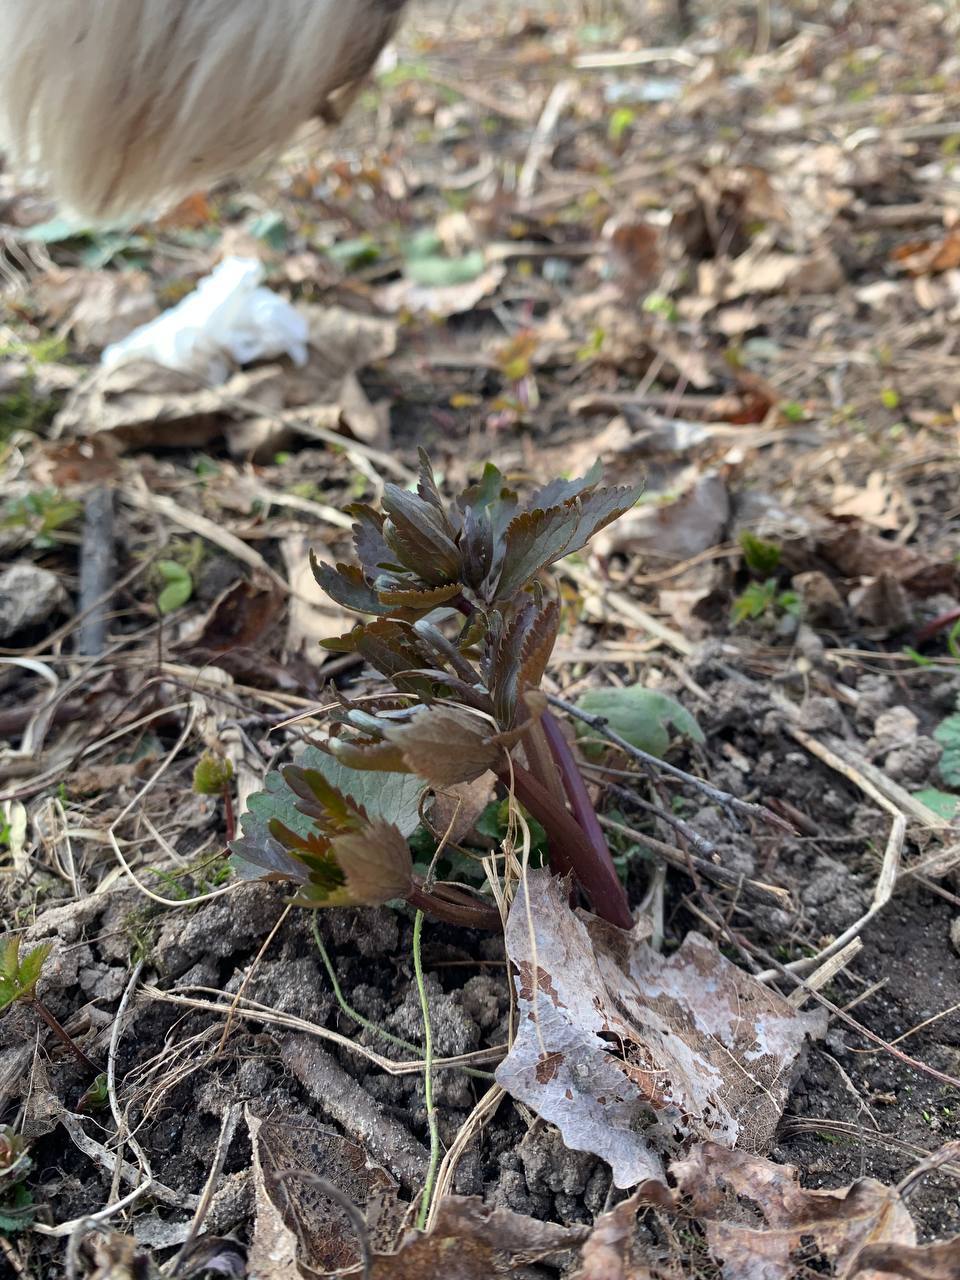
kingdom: Plantae
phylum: Tracheophyta
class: Magnoliopsida
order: Ranunculales
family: Ranunculaceae
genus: Ranunculus
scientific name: Ranunculus cassubicus
